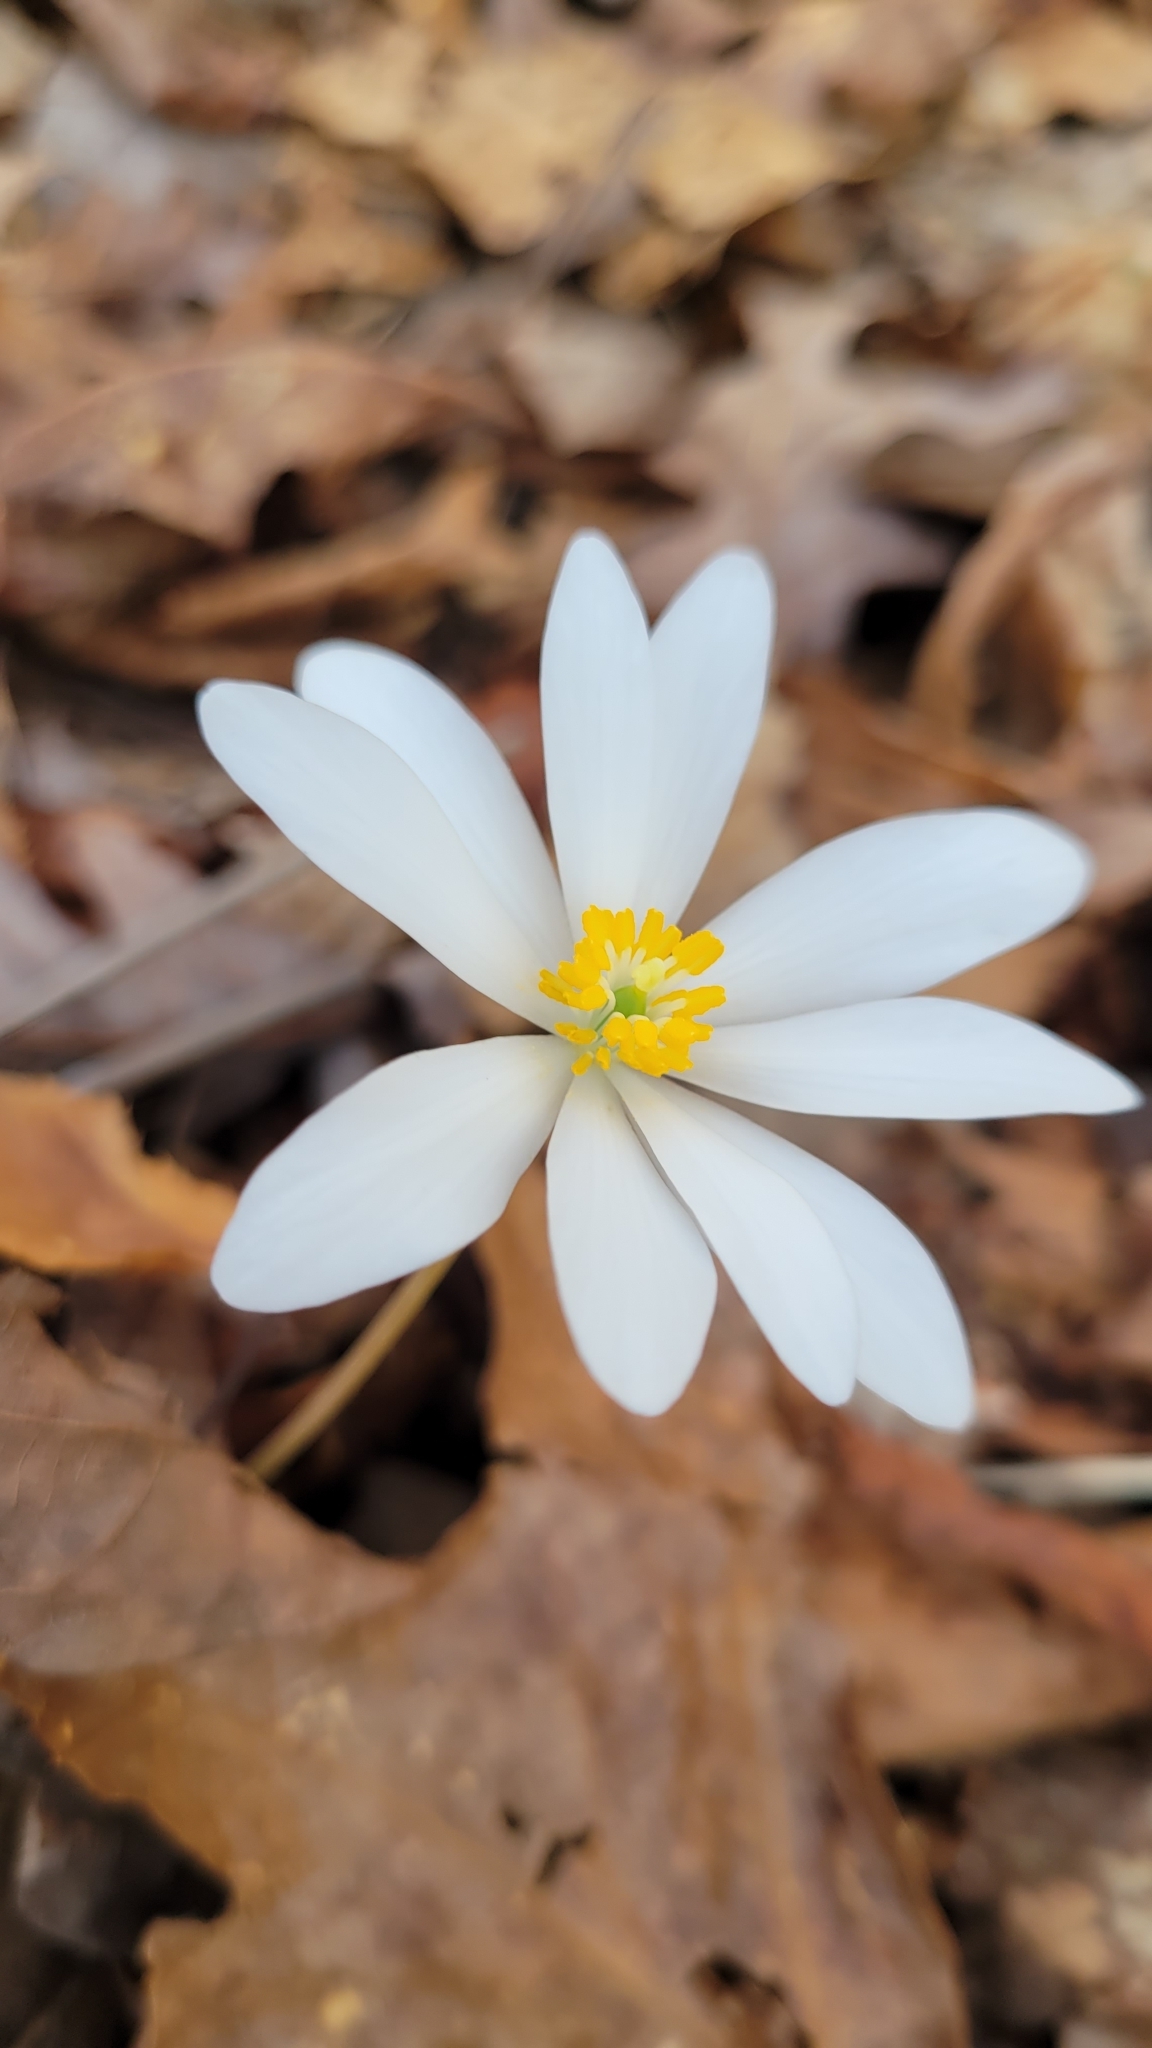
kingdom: Plantae
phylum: Tracheophyta
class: Magnoliopsida
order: Ranunculales
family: Papaveraceae
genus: Sanguinaria
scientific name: Sanguinaria canadensis
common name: Bloodroot
